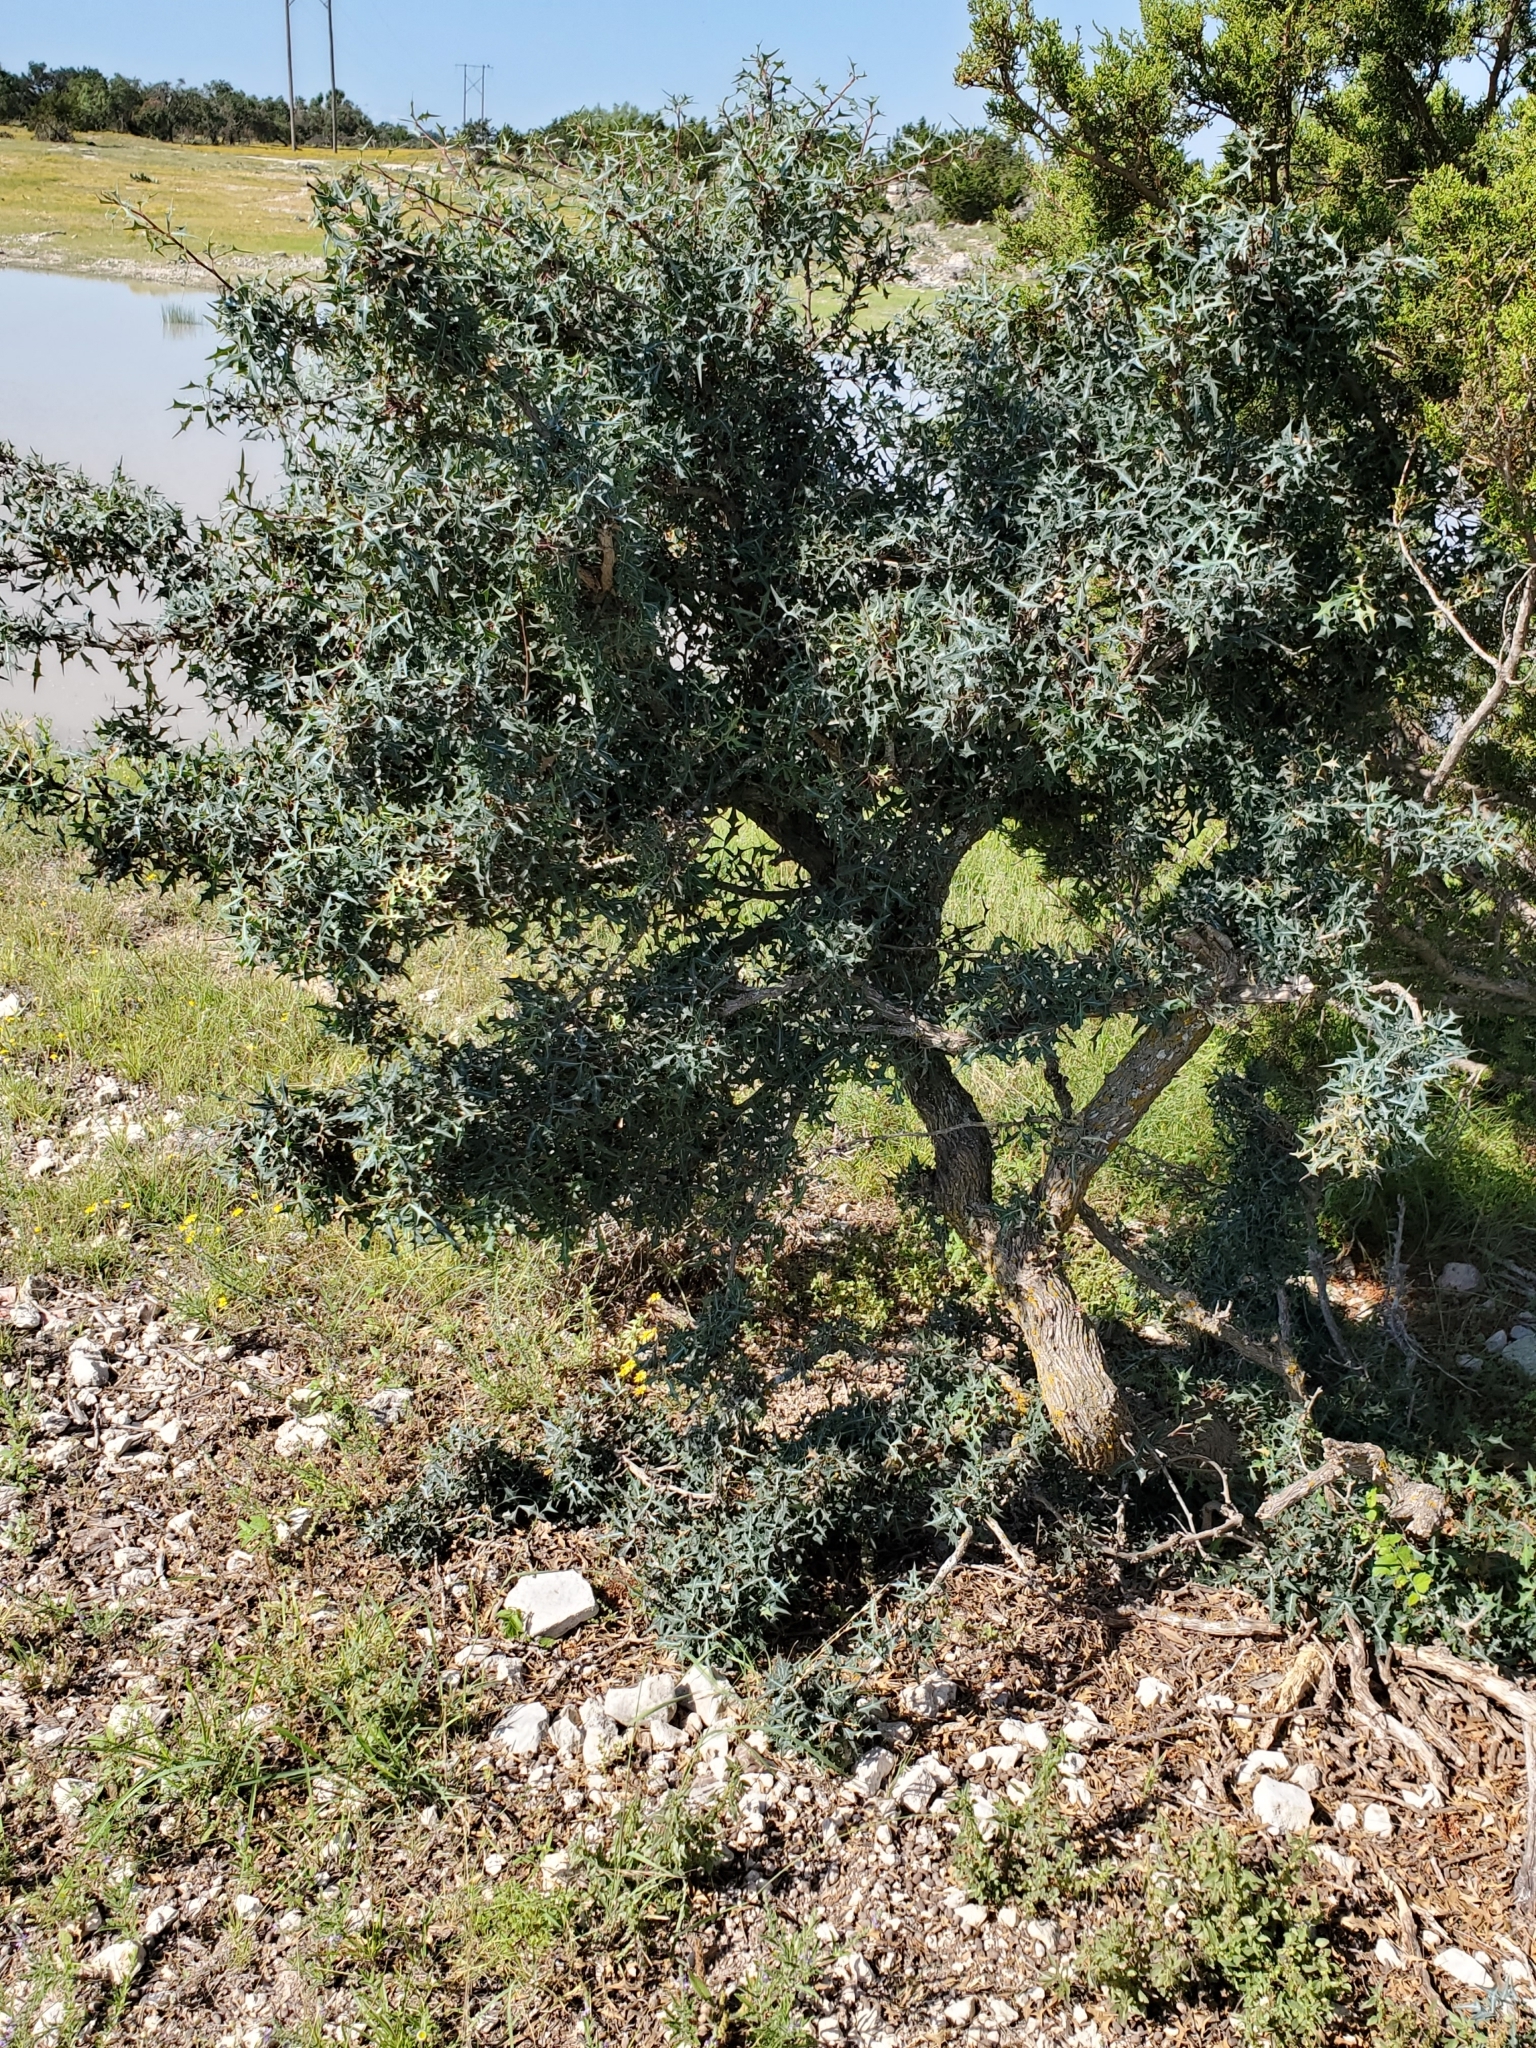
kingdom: Plantae
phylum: Tracheophyta
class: Magnoliopsida
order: Ranunculales
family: Berberidaceae
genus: Alloberberis
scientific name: Alloberberis trifoliolata
